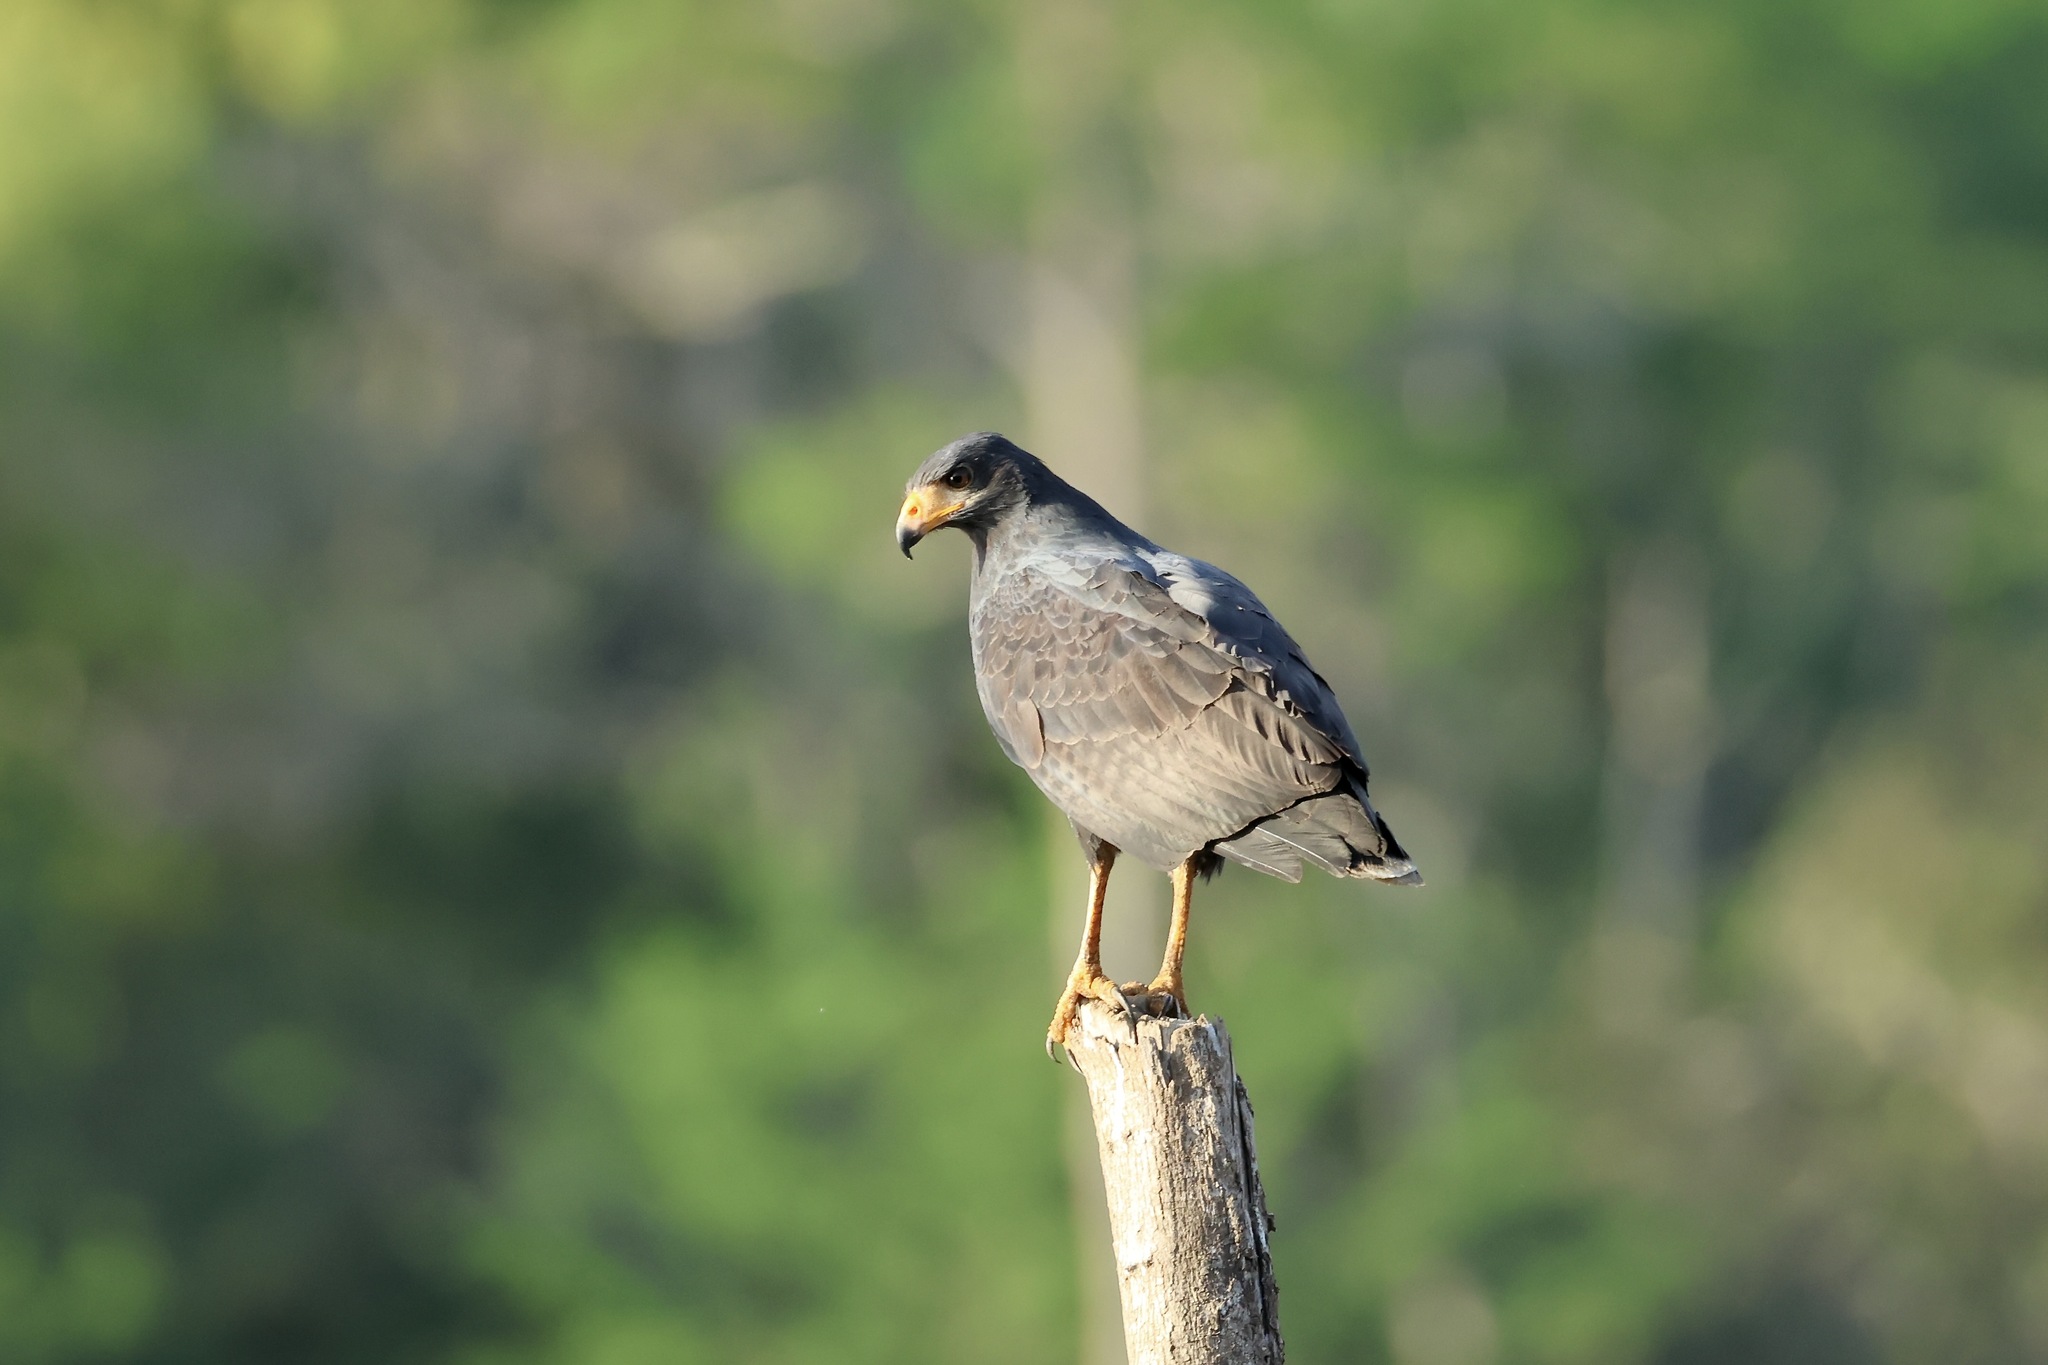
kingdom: Animalia
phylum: Chordata
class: Aves
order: Accipitriformes
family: Accipitridae
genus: Buteogallus
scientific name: Buteogallus anthracinus
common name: Common black hawk
